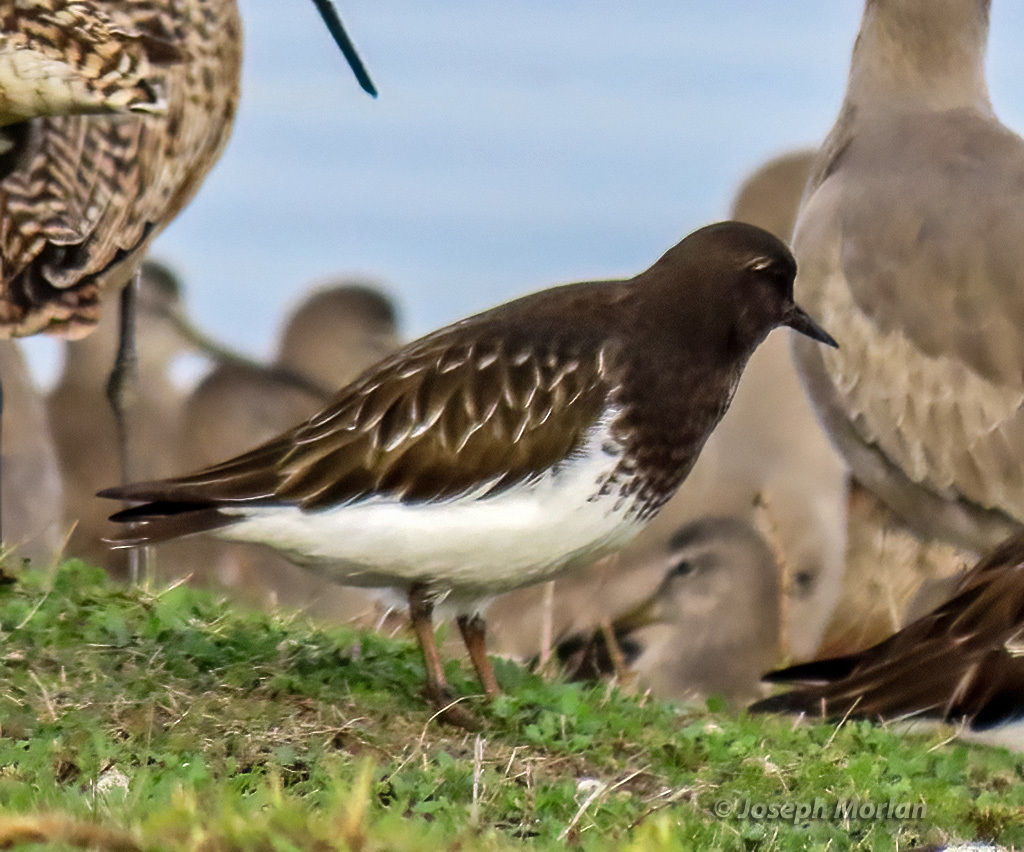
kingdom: Animalia
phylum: Chordata
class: Aves
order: Charadriiformes
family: Scolopacidae
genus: Arenaria
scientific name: Arenaria melanocephala
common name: Black turnstone
